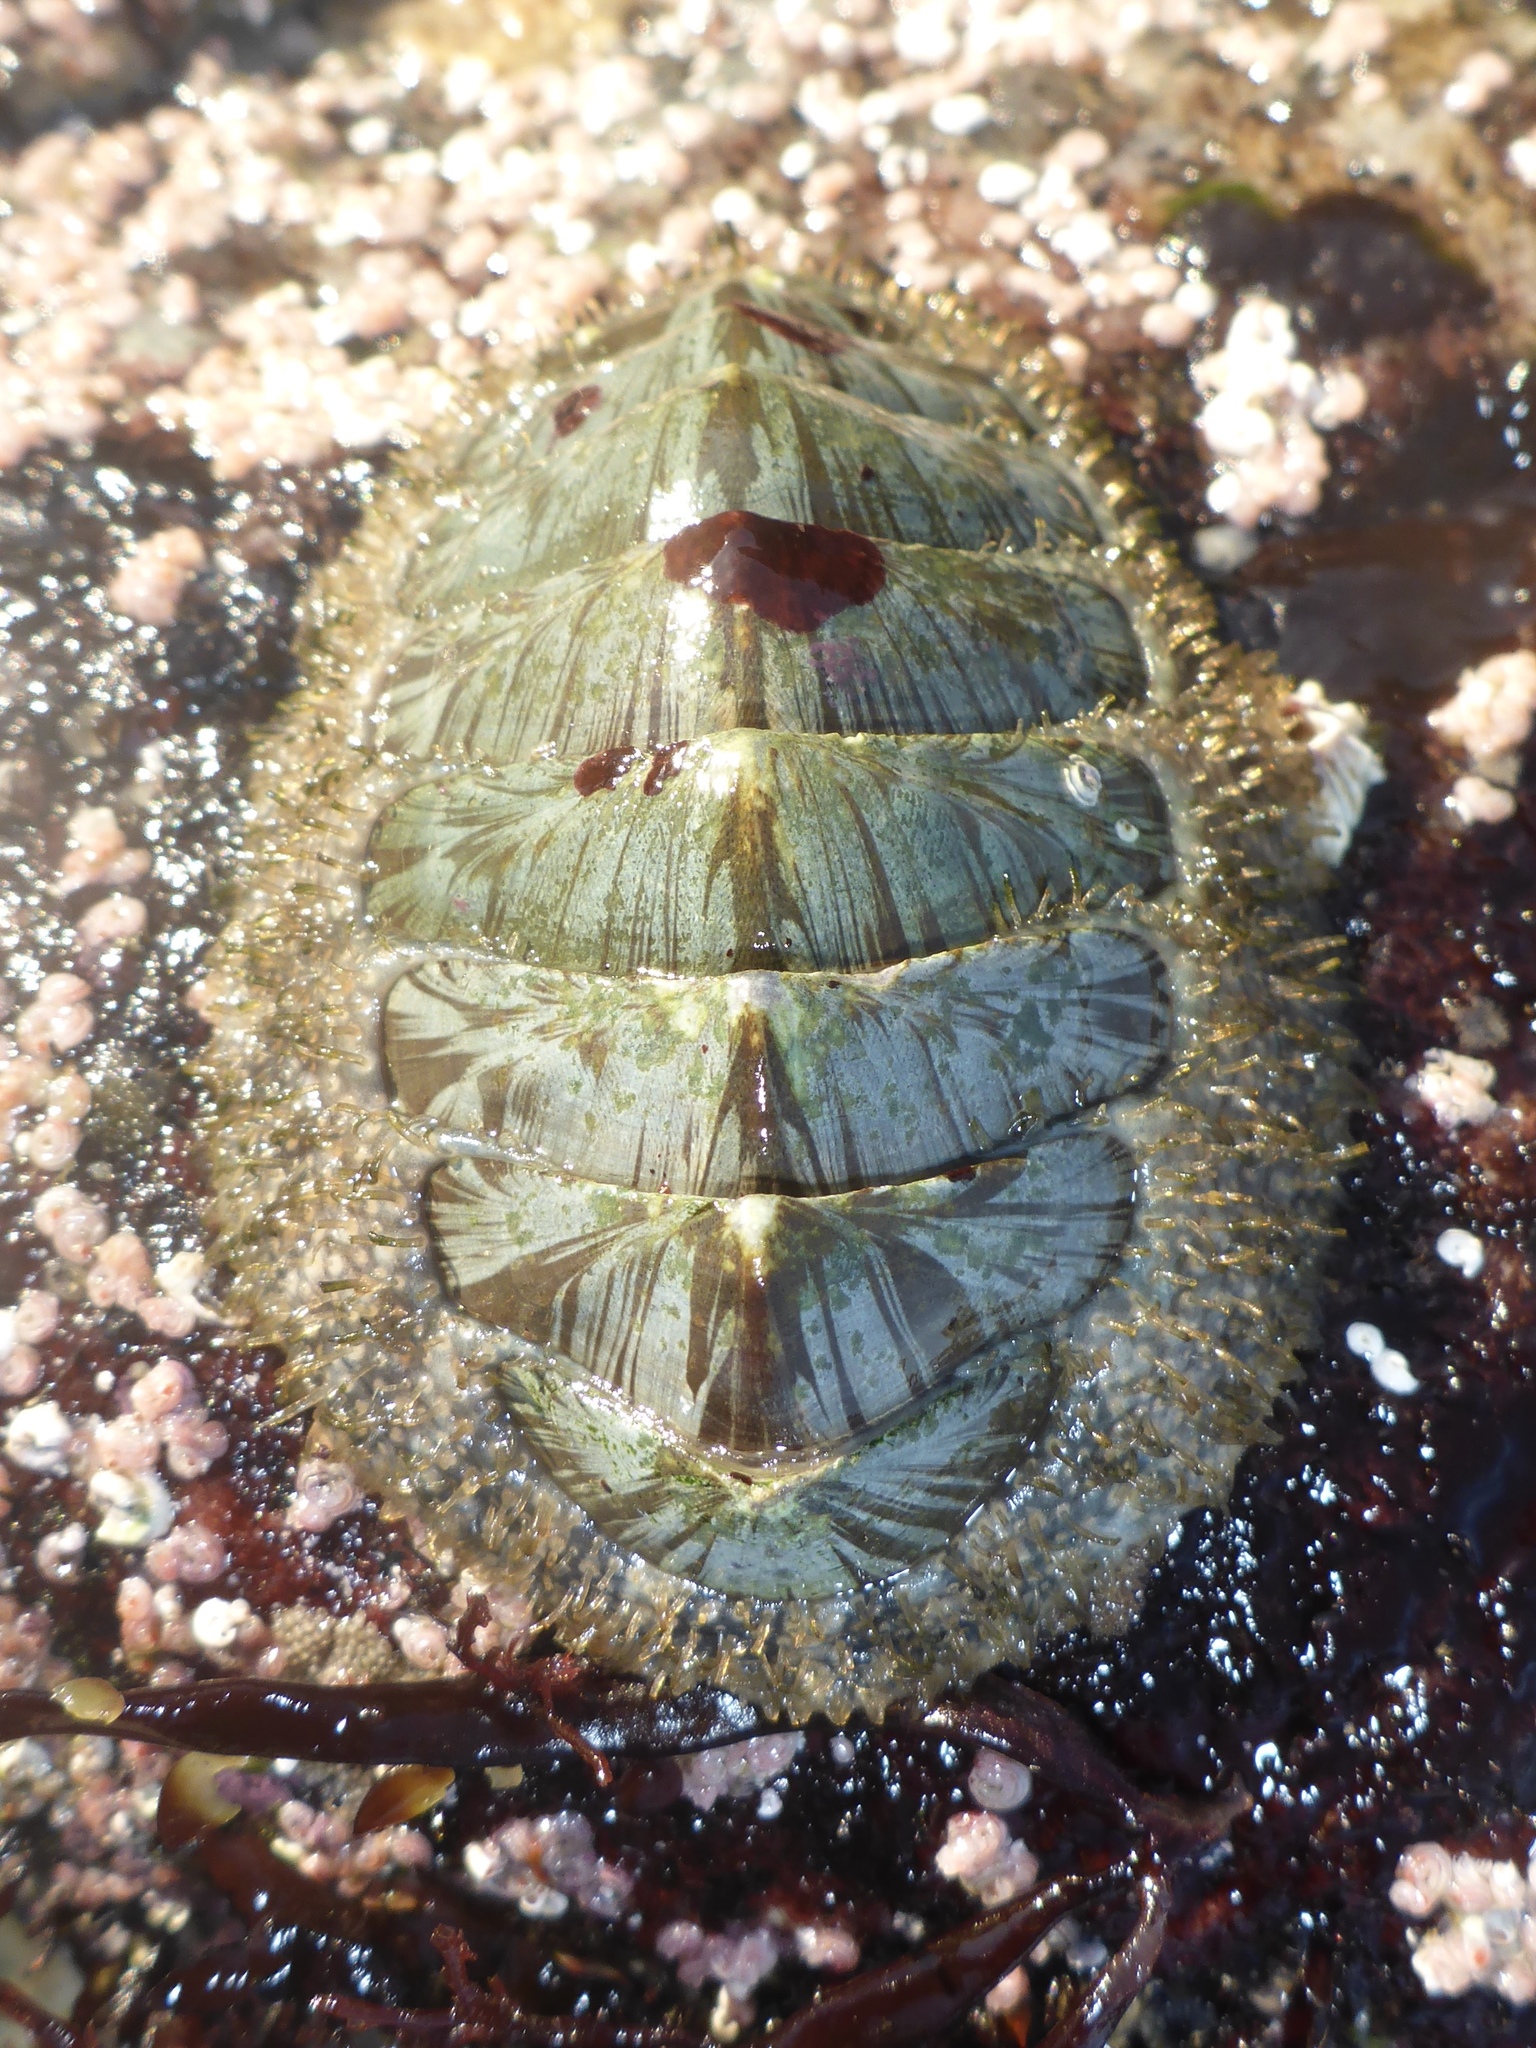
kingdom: Animalia
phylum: Mollusca
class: Polyplacophora
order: Chitonida
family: Mopaliidae
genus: Mopalia
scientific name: Mopalia lignosa
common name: Woody chiton
